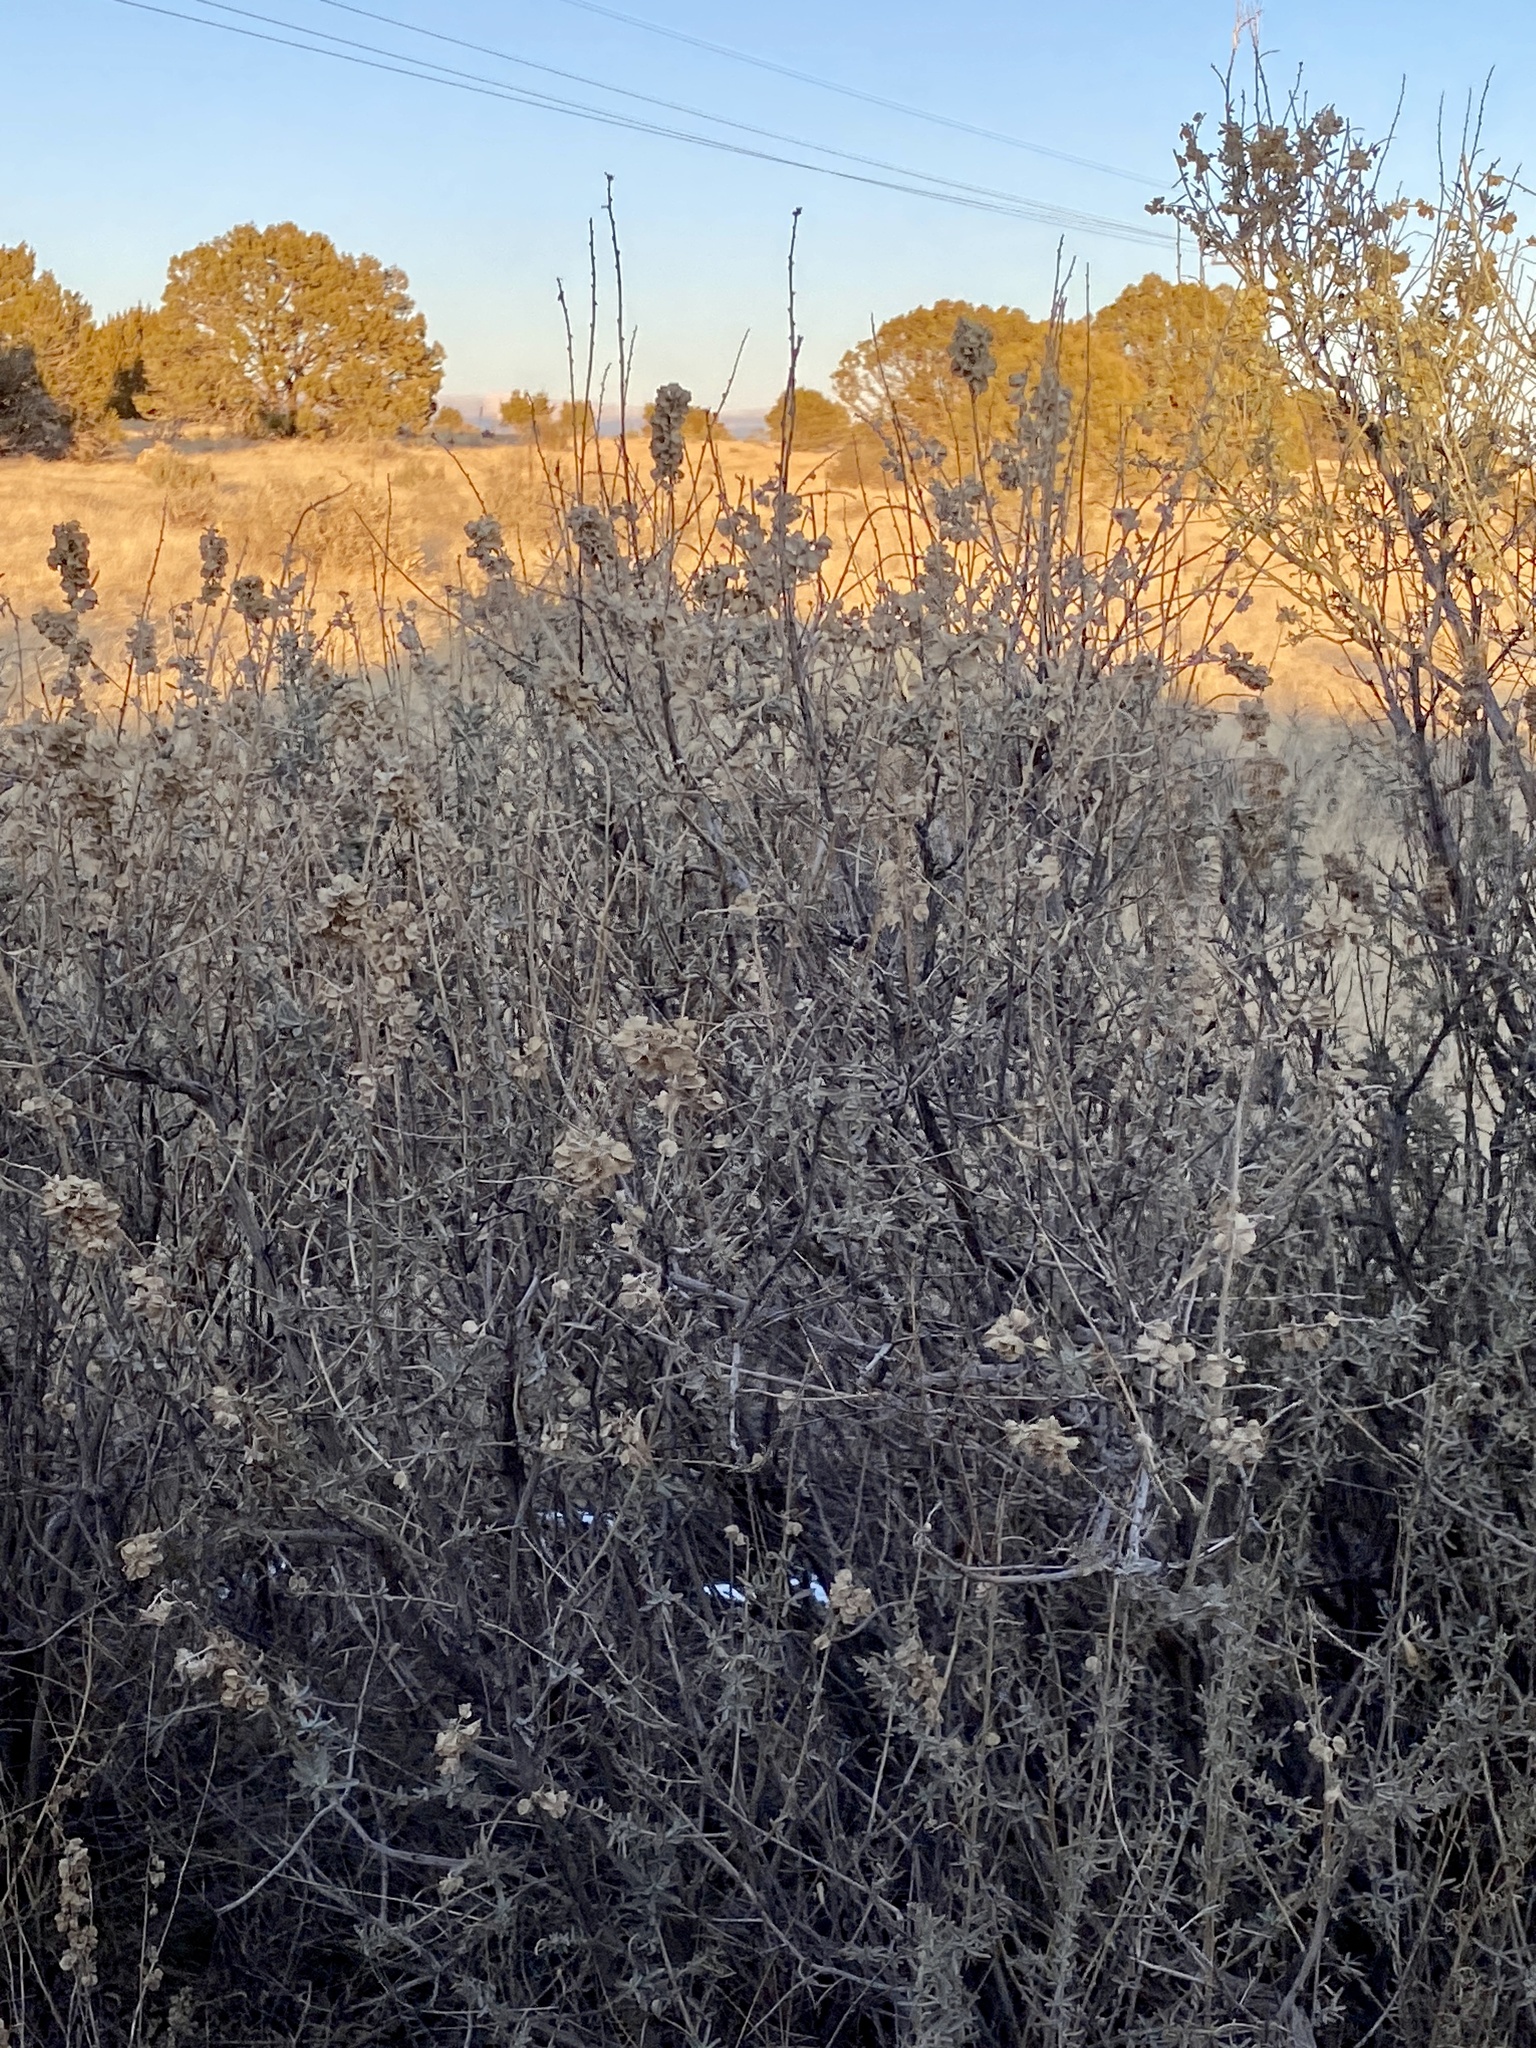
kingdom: Plantae
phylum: Tracheophyta
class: Magnoliopsida
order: Caryophyllales
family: Amaranthaceae
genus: Atriplex
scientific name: Atriplex canescens
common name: Four-wing saltbush
